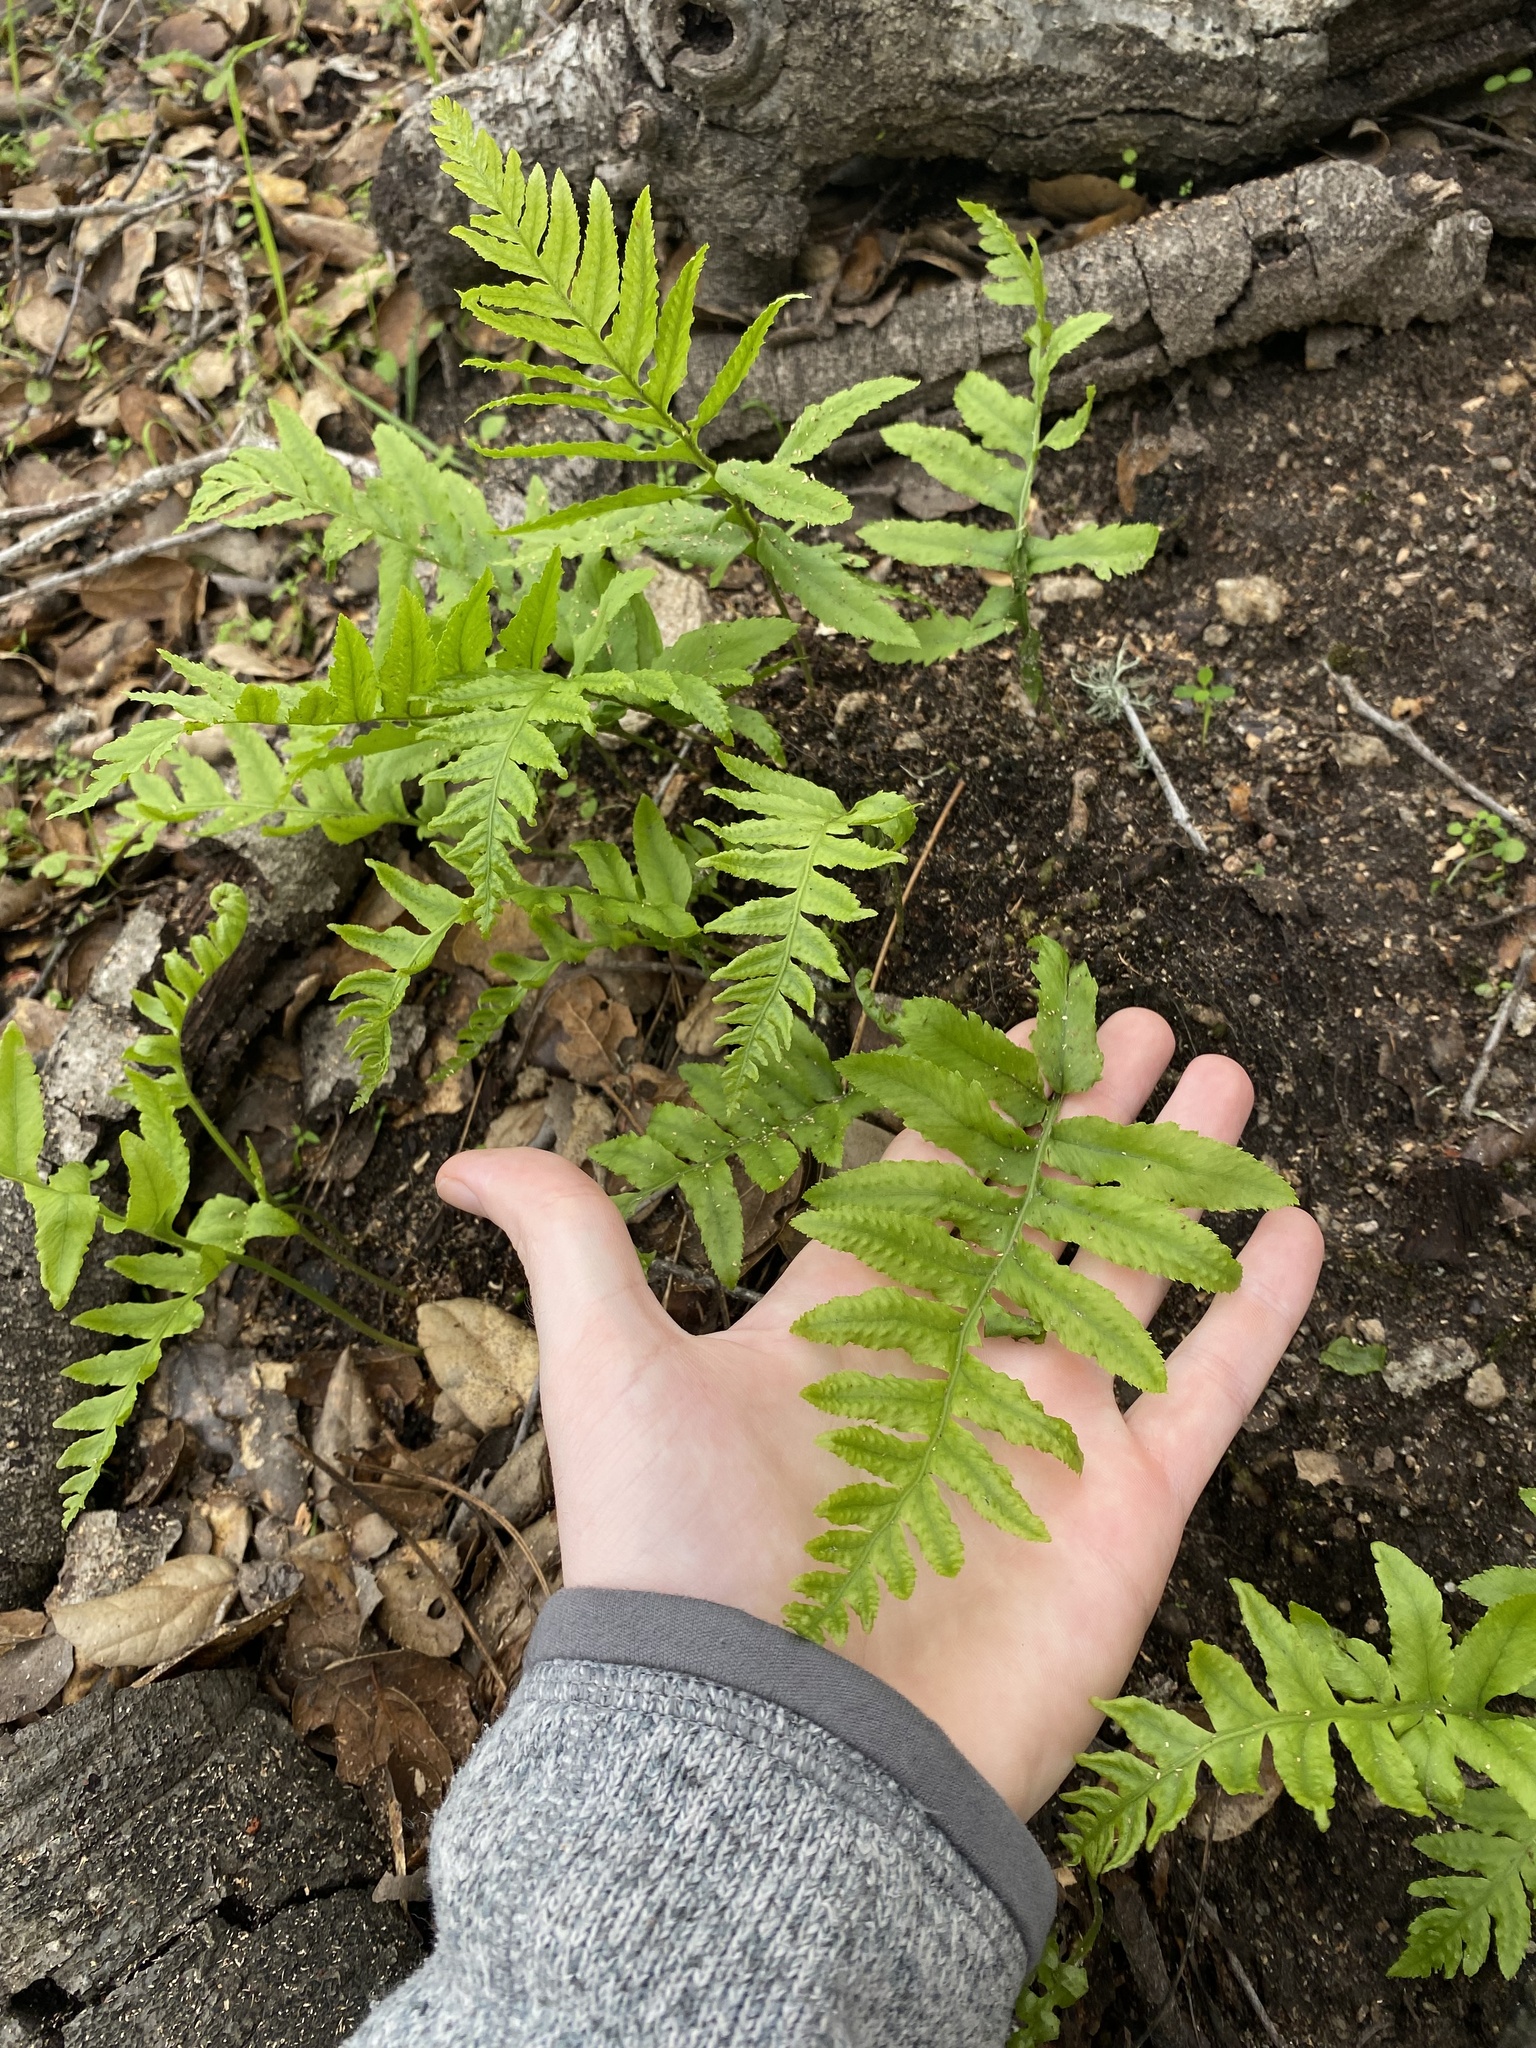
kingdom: Plantae
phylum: Tracheophyta
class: Polypodiopsida
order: Polypodiales
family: Polypodiaceae
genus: Polypodium
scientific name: Polypodium californicum
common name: California polypody
